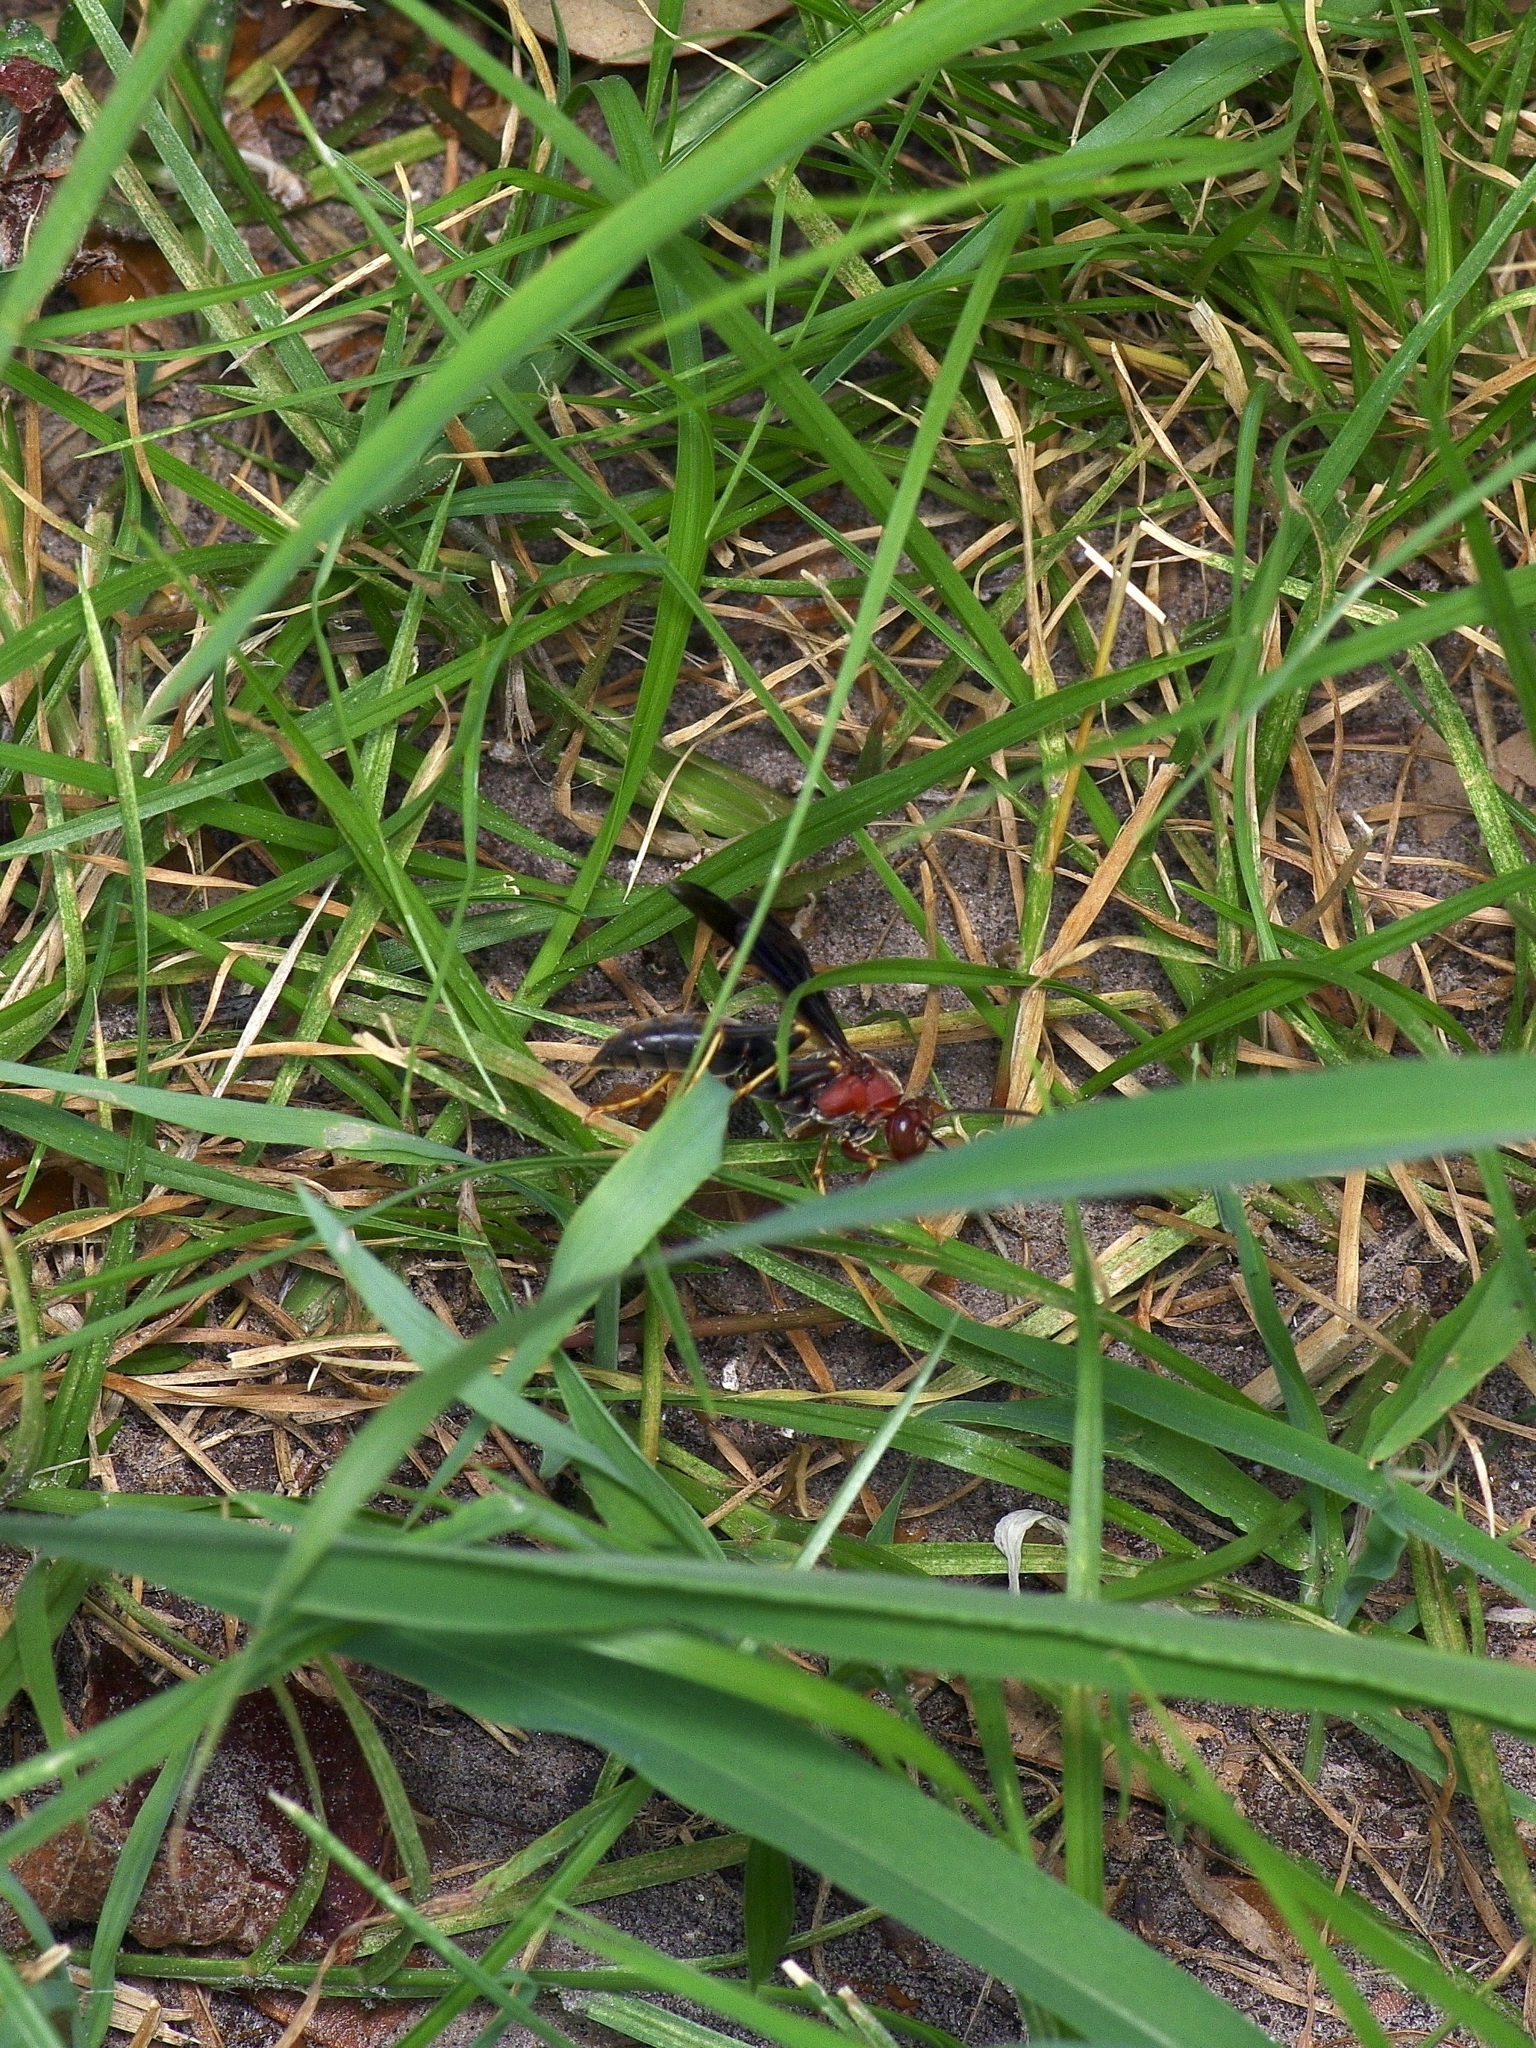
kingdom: Animalia
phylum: Arthropoda
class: Insecta
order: Hymenoptera
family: Eumenidae
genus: Polistes
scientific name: Polistes metricus
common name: Metric paper wasp
